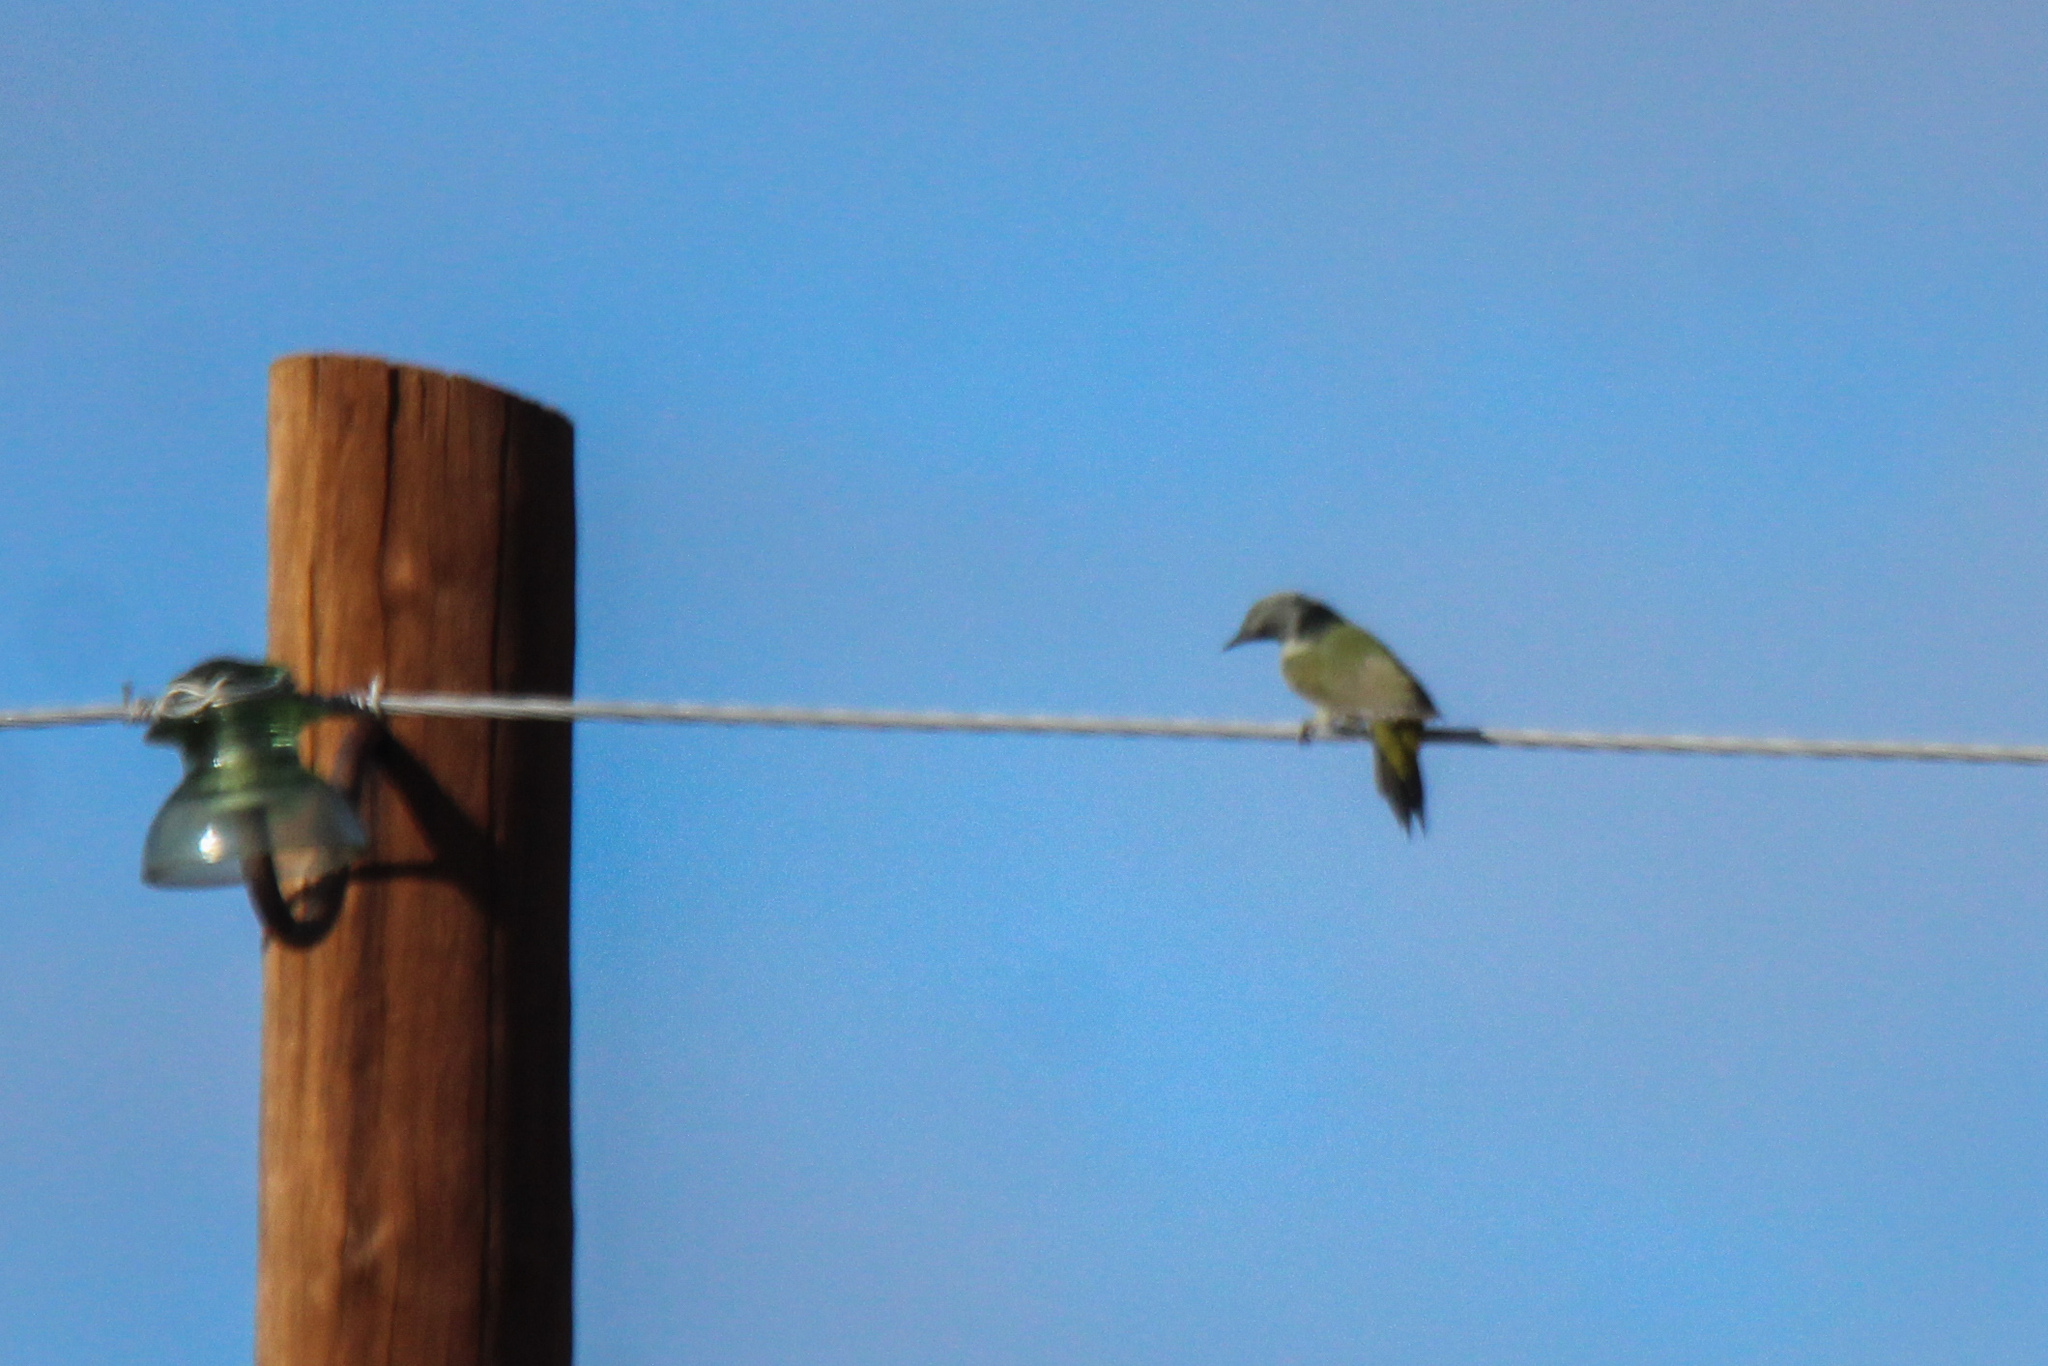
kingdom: Animalia
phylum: Chordata
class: Aves
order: Piciformes
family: Picidae
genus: Picus
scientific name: Picus canus
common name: Grey-headed woodpecker
